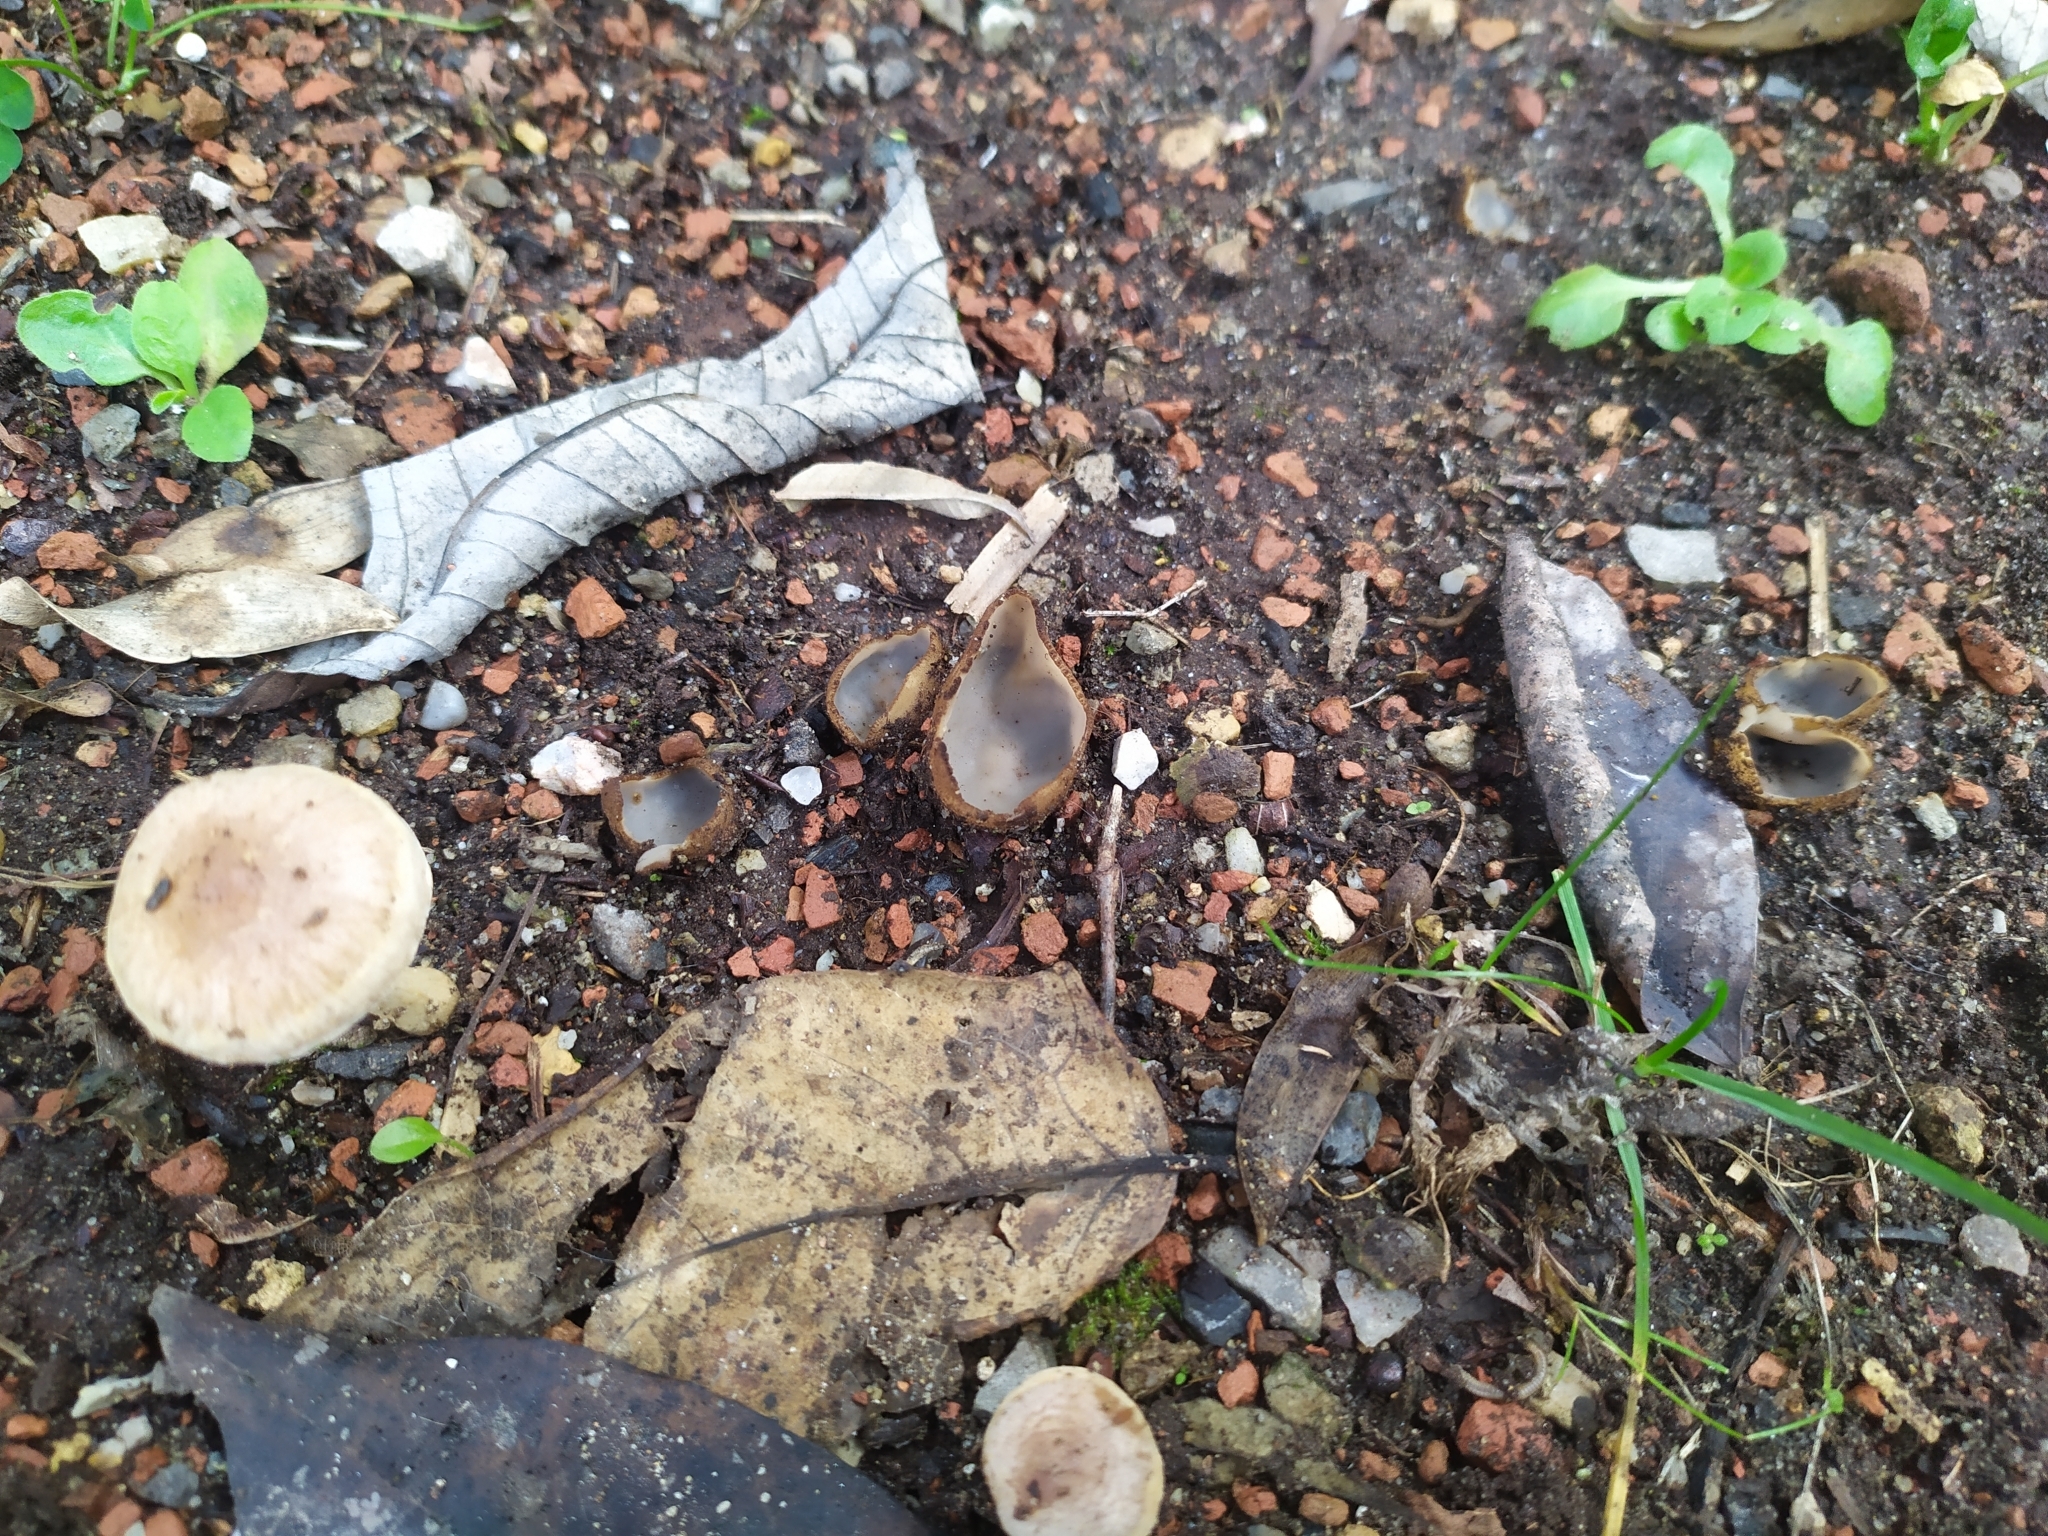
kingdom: Fungi
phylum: Ascomycota
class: Pezizomycetes
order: Pezizales
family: Pyronemataceae
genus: Humaria
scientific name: Humaria hemisphaerica
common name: Glazed cup
